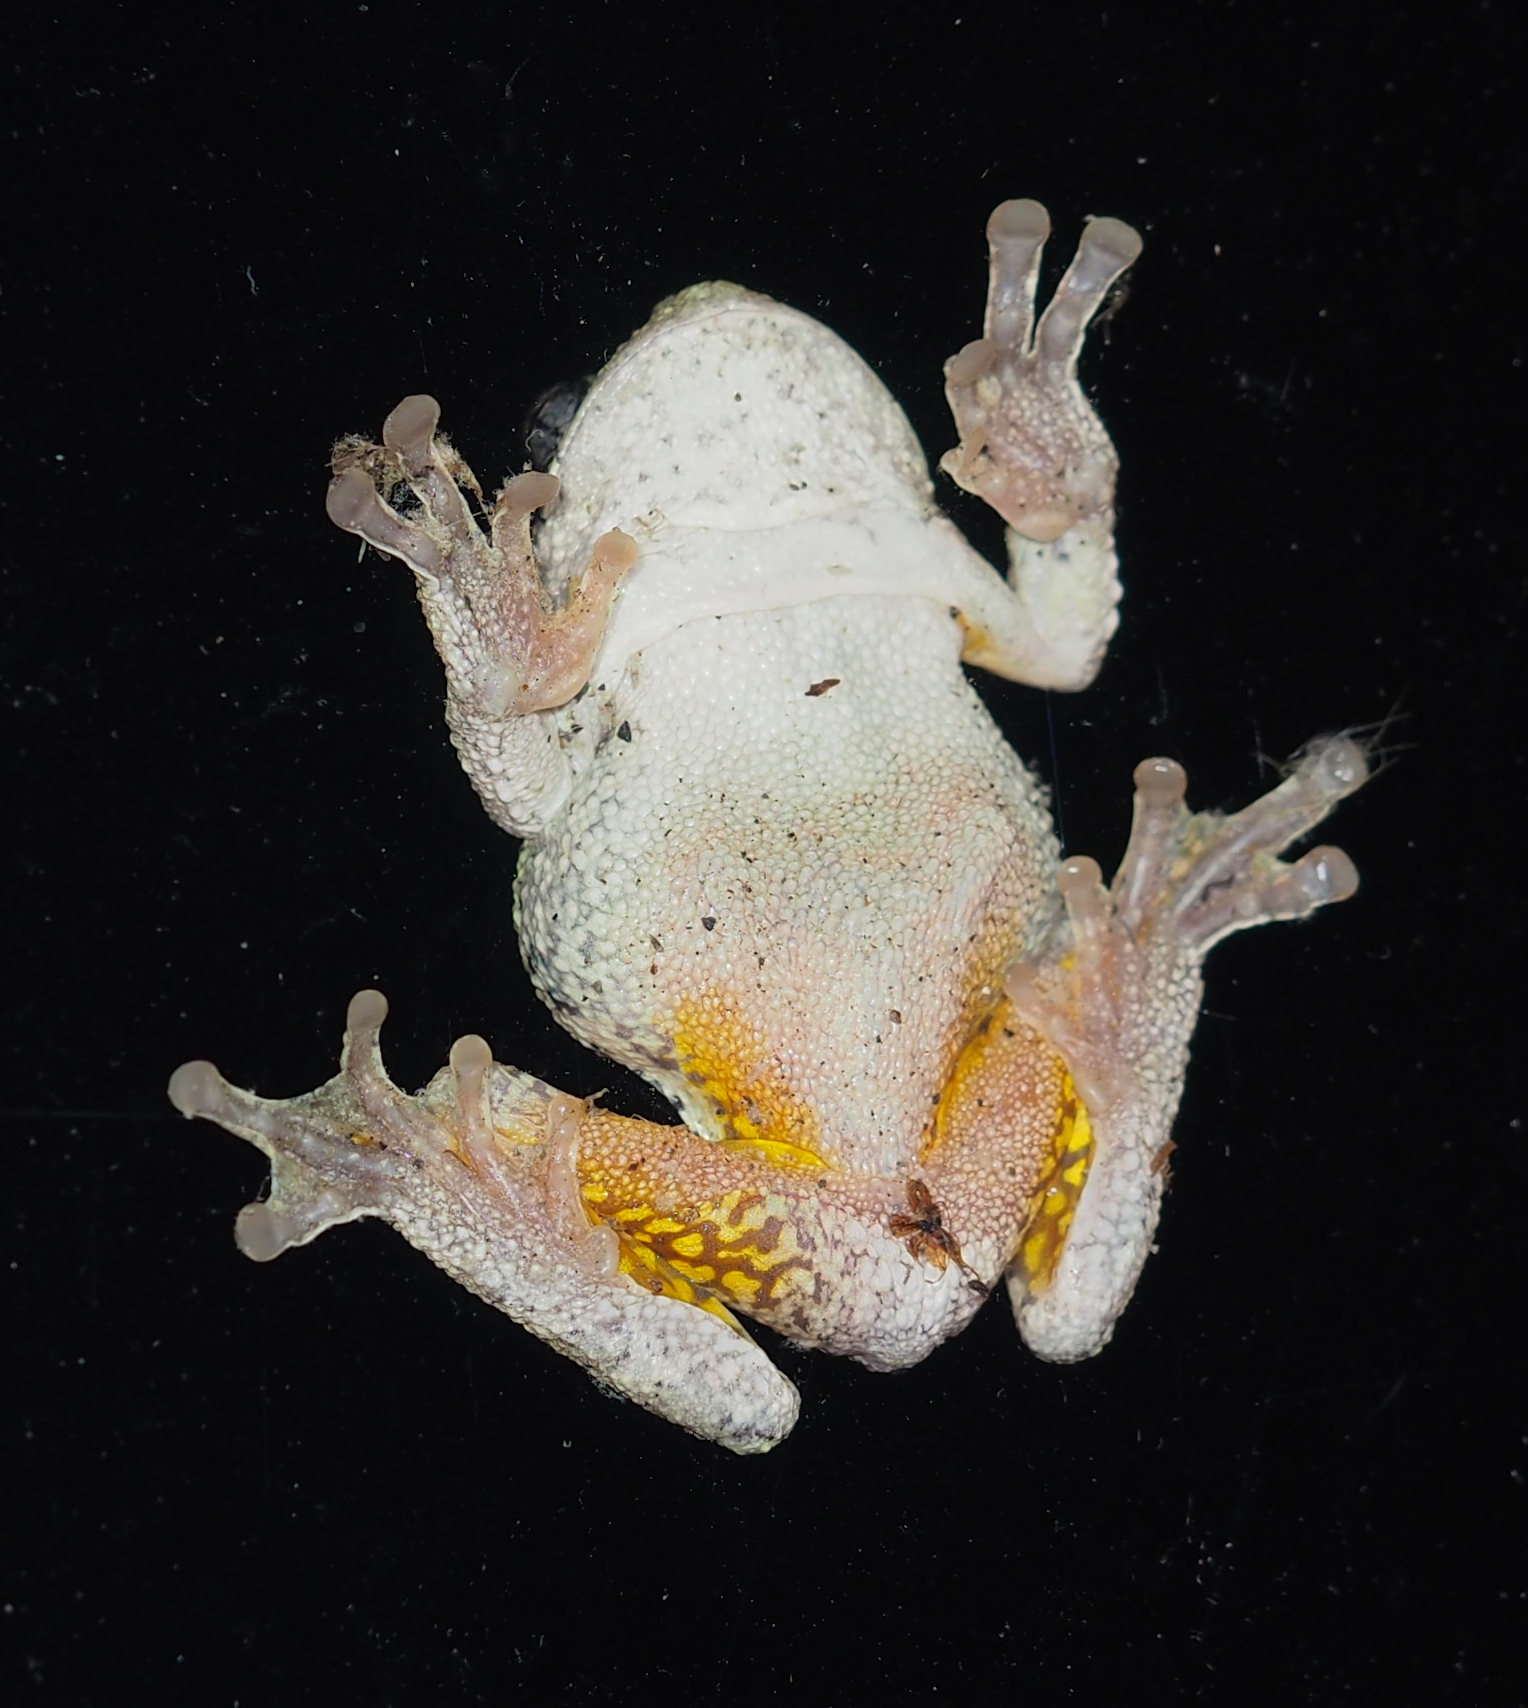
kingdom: Animalia
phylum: Chordata
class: Amphibia
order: Anura
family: Hylidae
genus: Hyla
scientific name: Hyla
